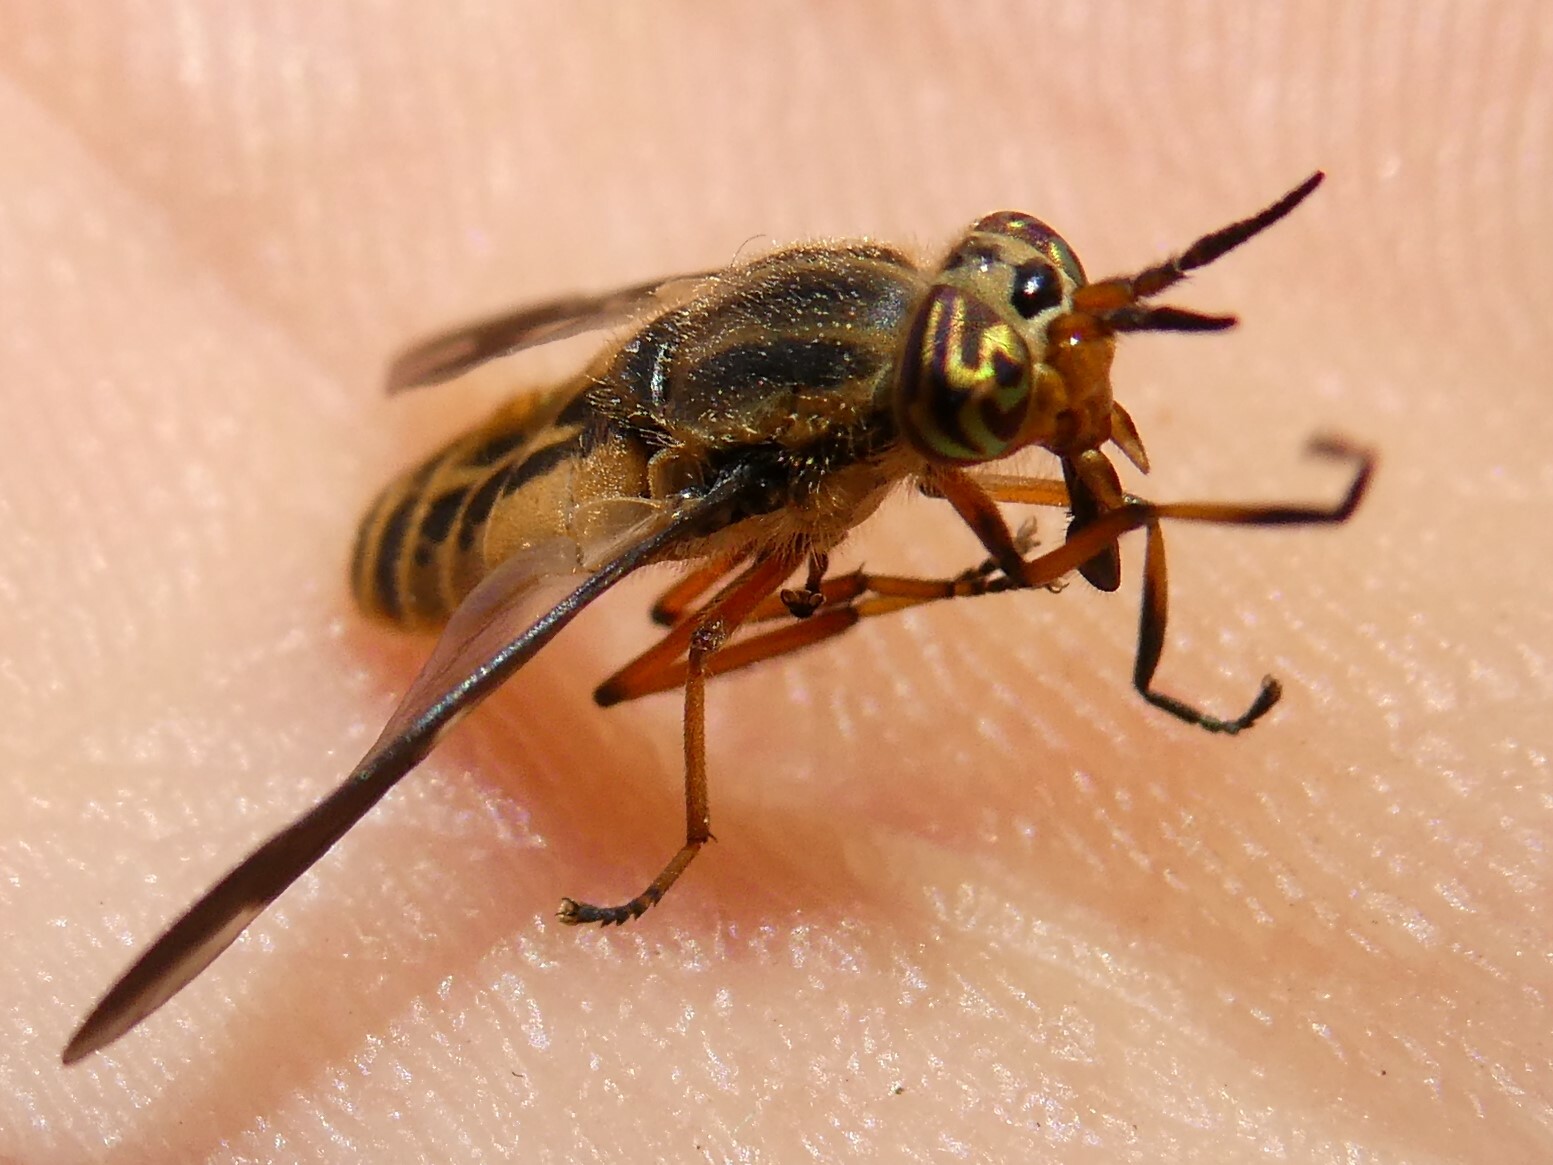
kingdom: Animalia
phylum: Arthropoda
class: Insecta
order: Diptera
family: Tabanidae
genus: Chrysops
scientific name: Chrysops indus
